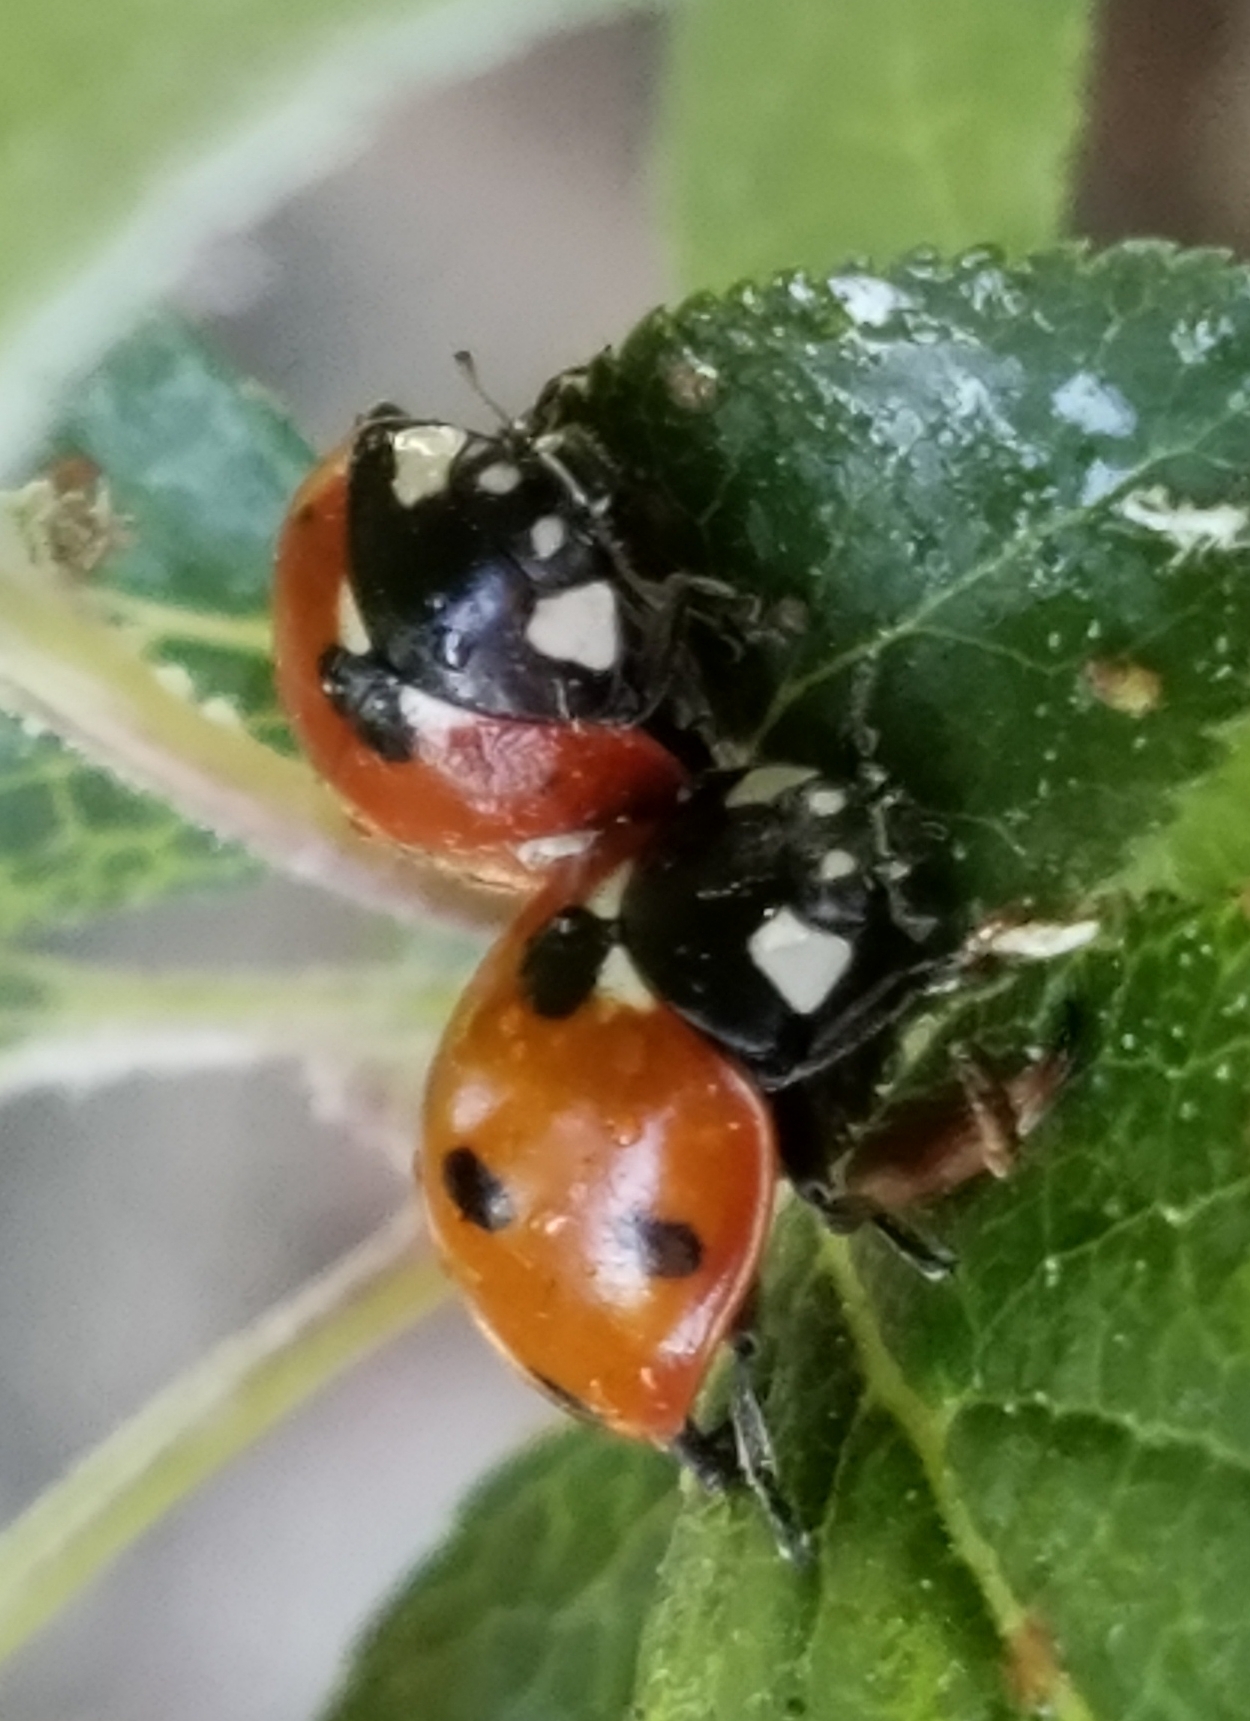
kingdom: Animalia
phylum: Arthropoda
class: Insecta
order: Coleoptera
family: Coccinellidae
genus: Coccinella
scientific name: Coccinella septempunctata
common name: Sevenspotted lady beetle
